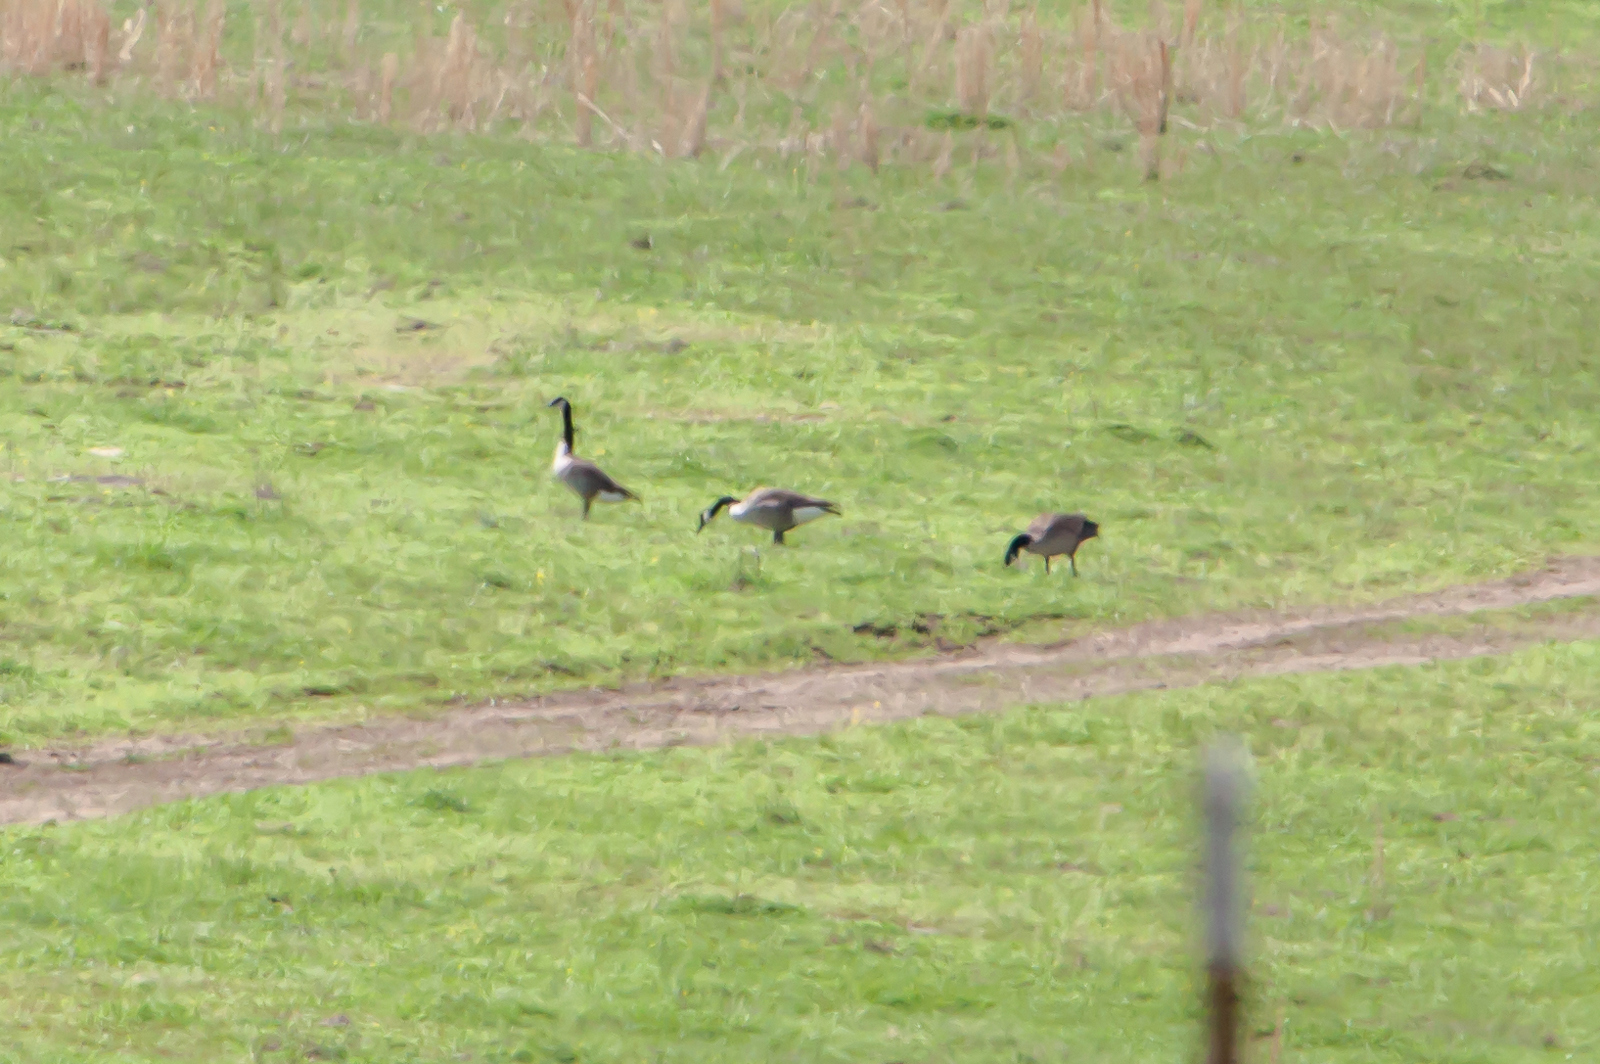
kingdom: Animalia
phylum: Chordata
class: Aves
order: Anseriformes
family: Anatidae
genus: Branta
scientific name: Branta canadensis
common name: Canada goose
